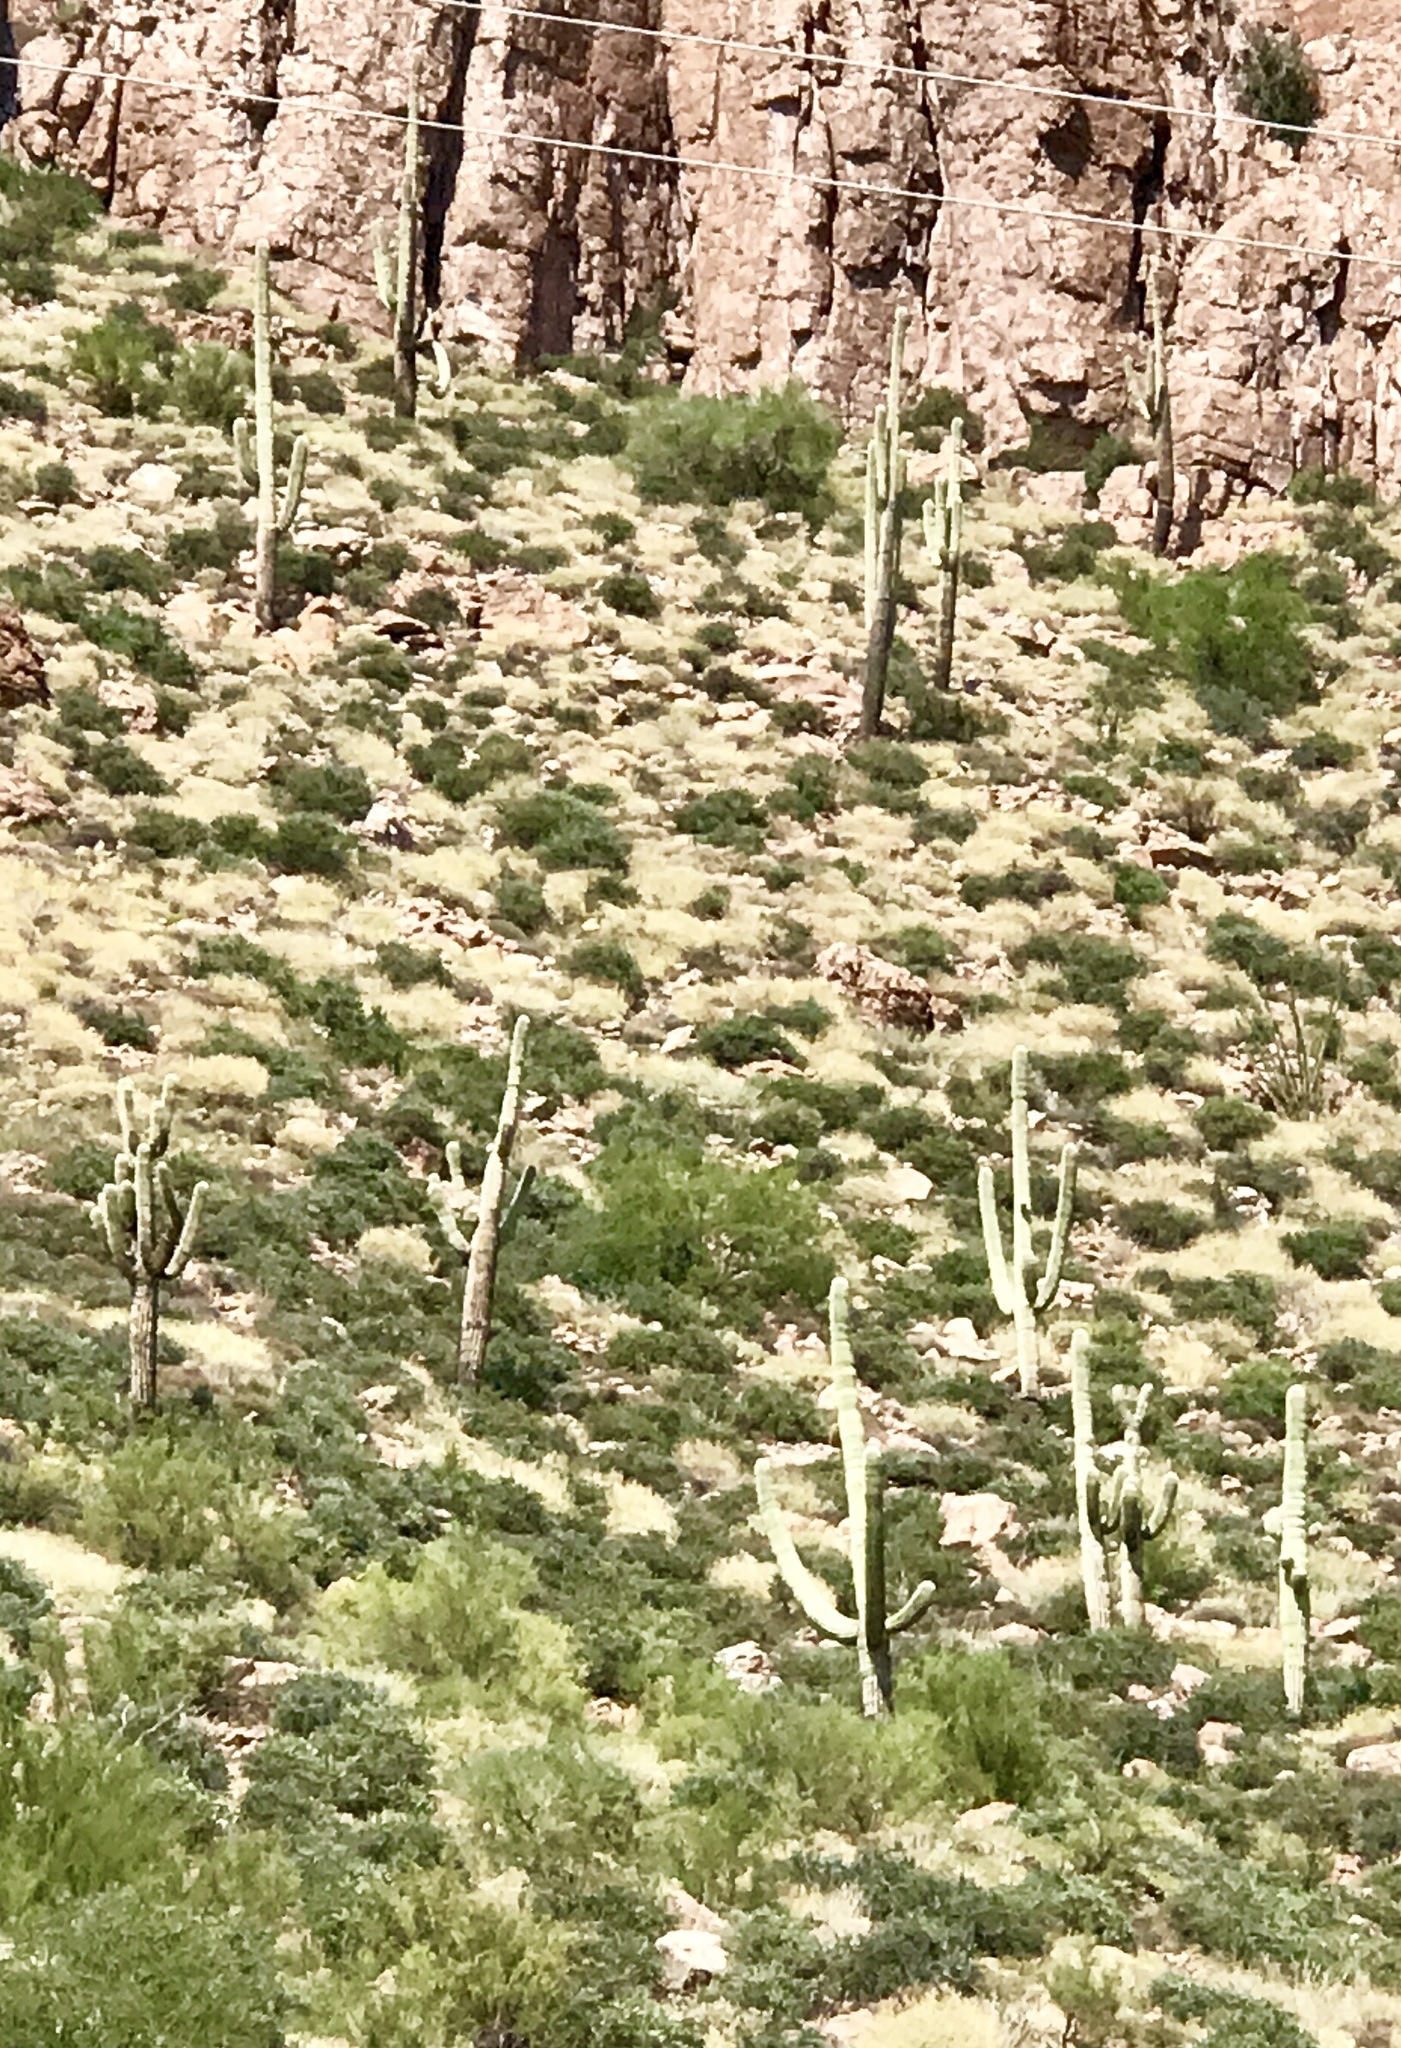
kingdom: Plantae
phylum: Tracheophyta
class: Magnoliopsida
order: Caryophyllales
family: Cactaceae
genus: Carnegiea
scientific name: Carnegiea gigantea
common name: Saguaro
